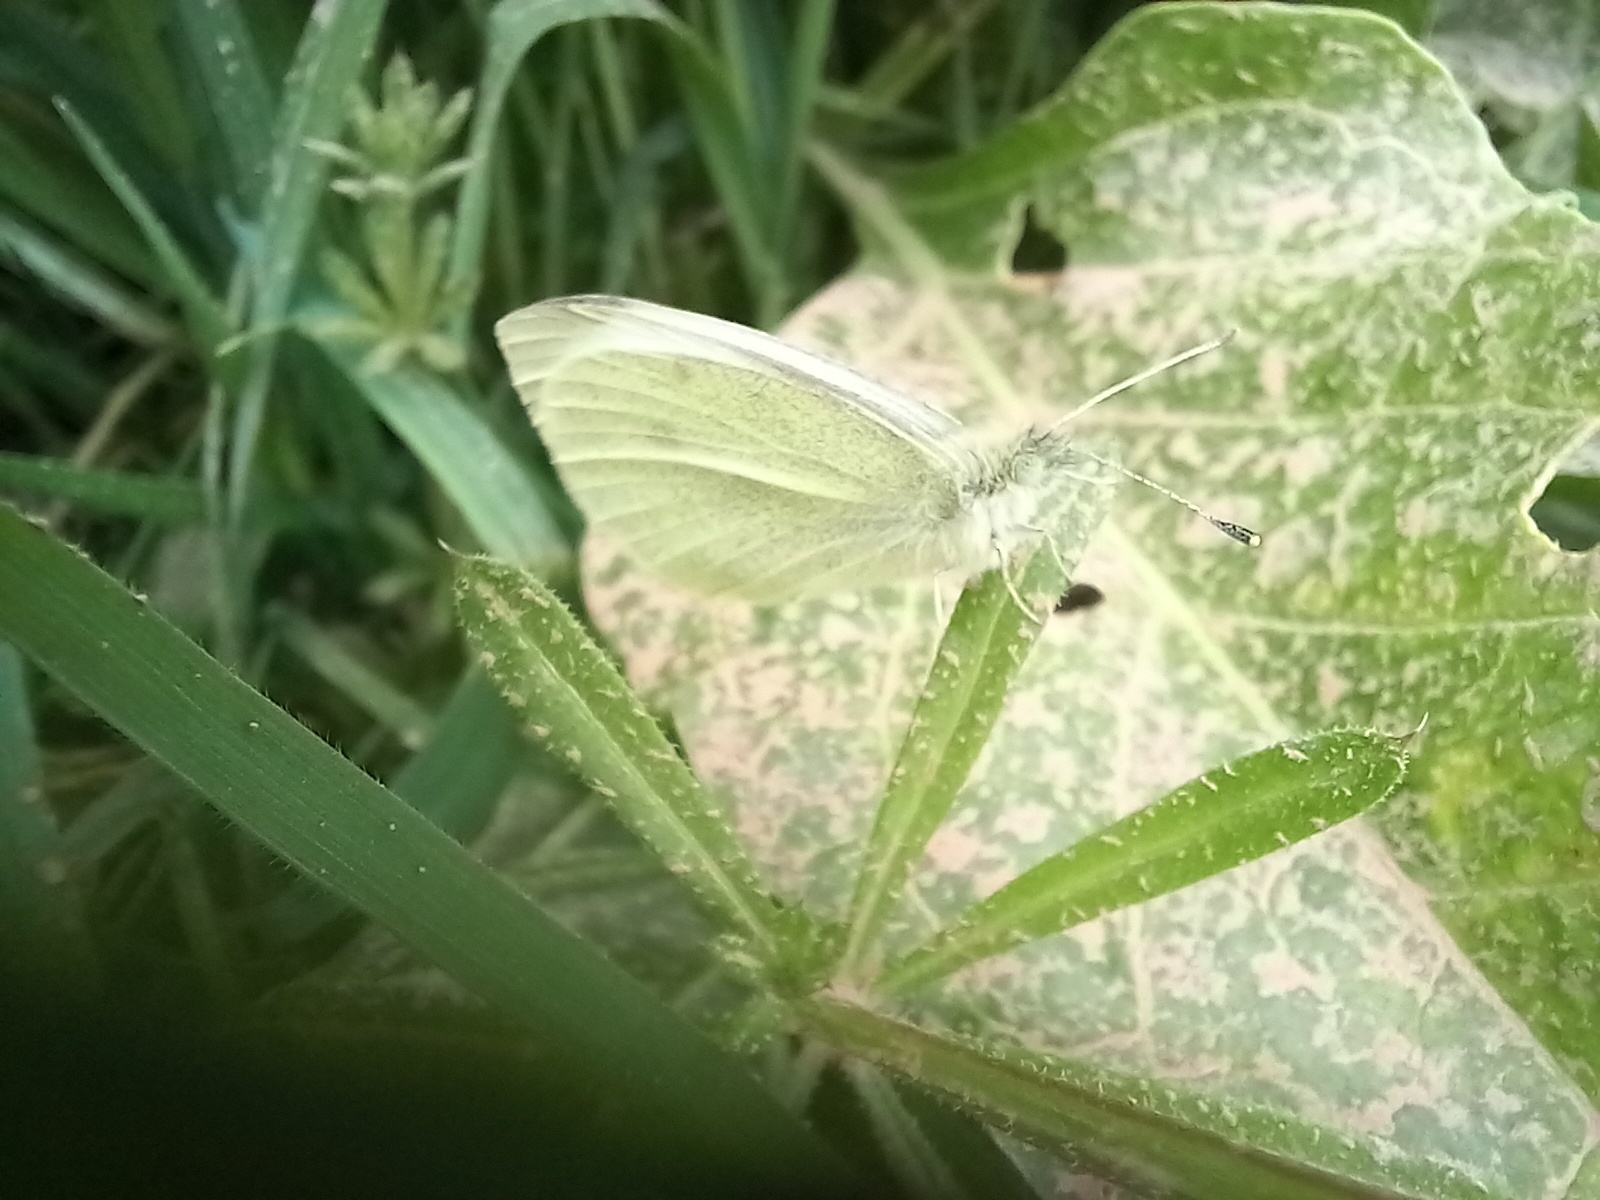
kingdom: Animalia
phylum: Arthropoda
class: Insecta
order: Lepidoptera
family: Pieridae
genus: Pieris
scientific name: Pieris rapae
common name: Small white
